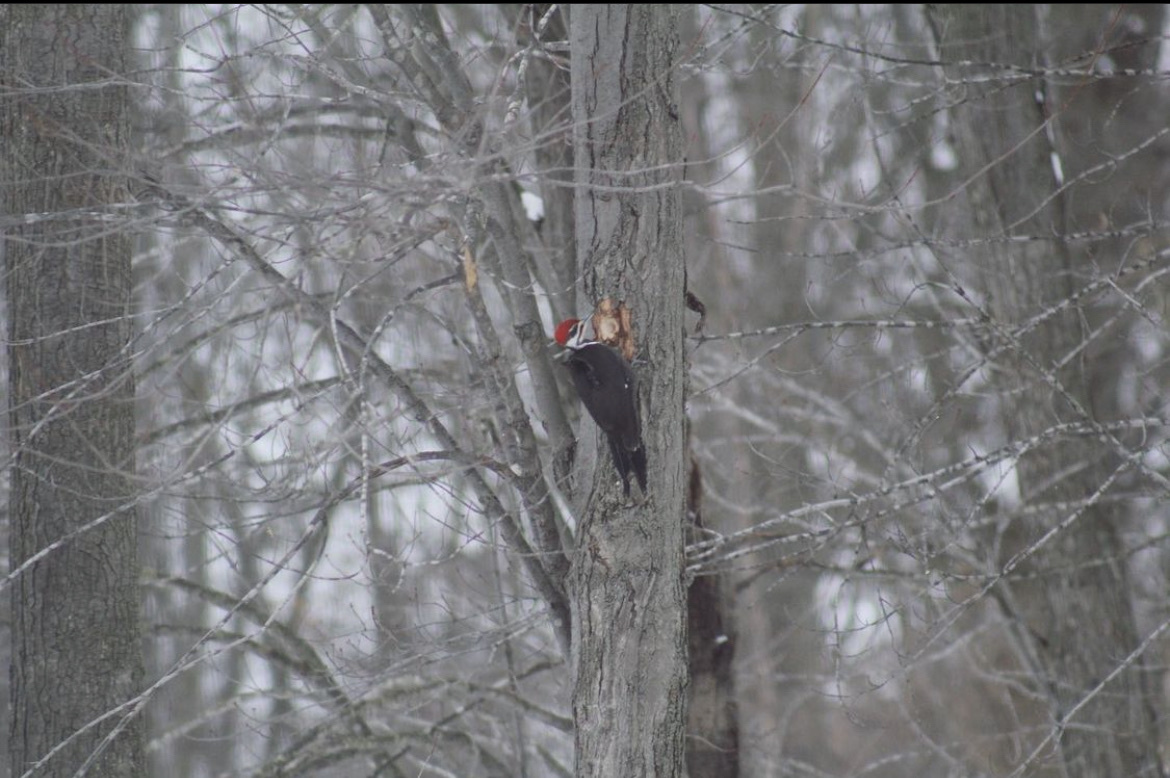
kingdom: Animalia
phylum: Chordata
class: Aves
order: Piciformes
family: Picidae
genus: Dryocopus
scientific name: Dryocopus pileatus
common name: Pileated woodpecker
